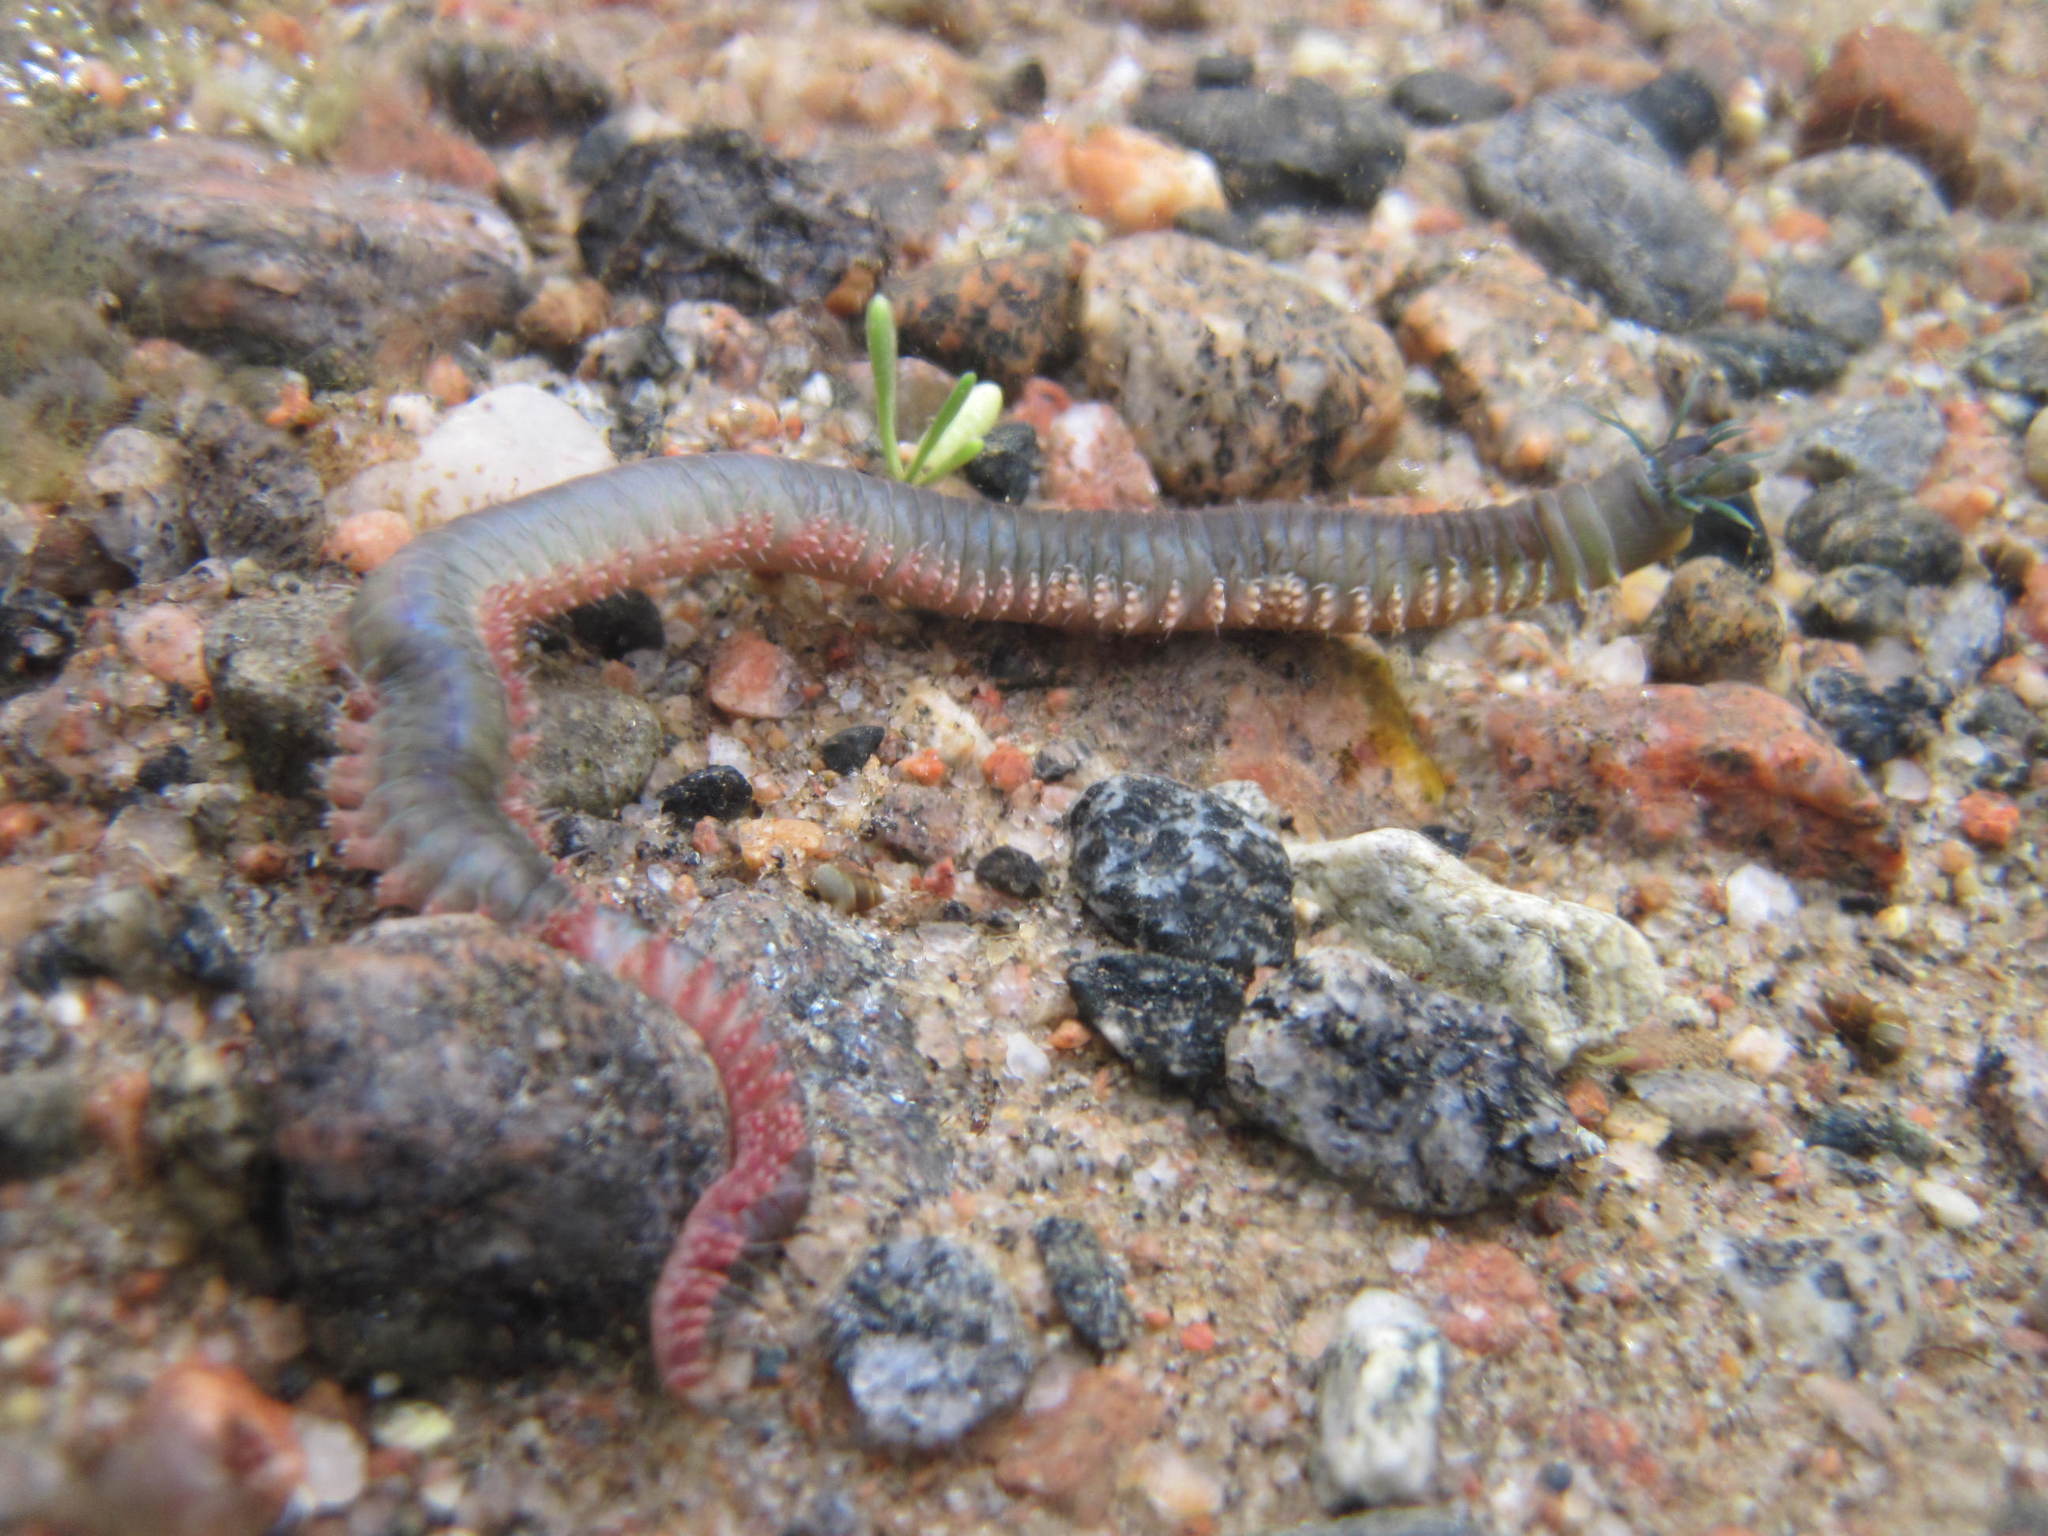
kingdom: Animalia
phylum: Annelida
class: Polychaeta
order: Phyllodocida
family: Nereididae
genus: Alitta
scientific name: Alitta virens
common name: King ragworm
